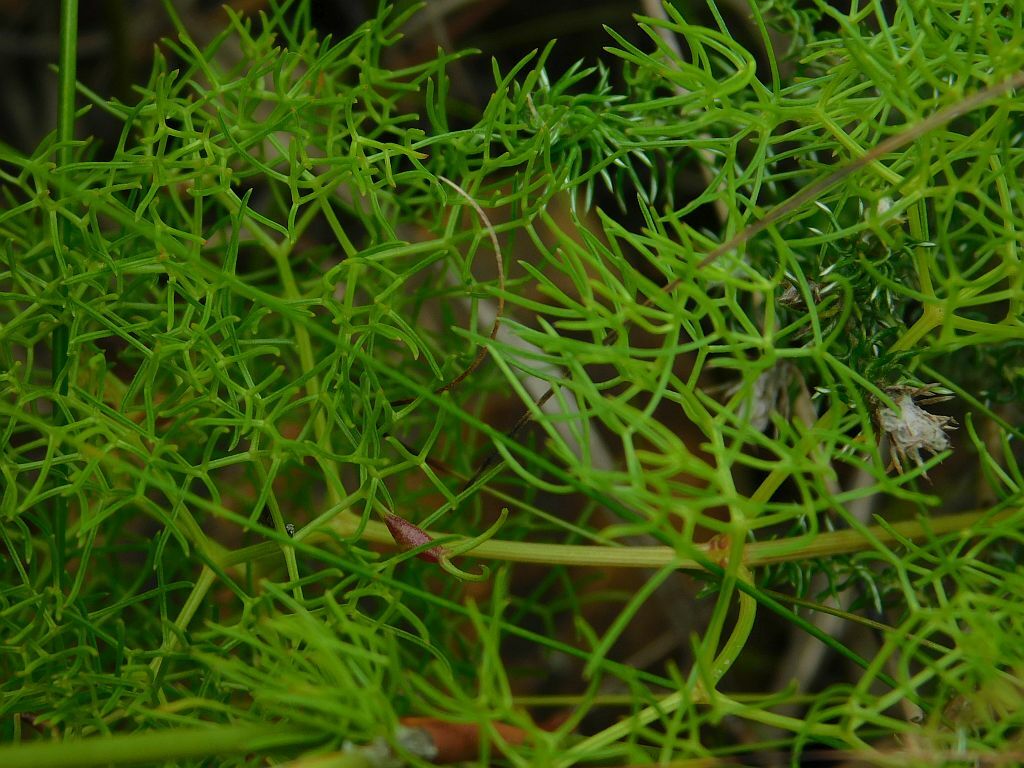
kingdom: Plantae
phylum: Tracheophyta
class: Magnoliopsida
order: Apiales
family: Apiaceae
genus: Nanobubon
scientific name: Nanobubon capillaceum
